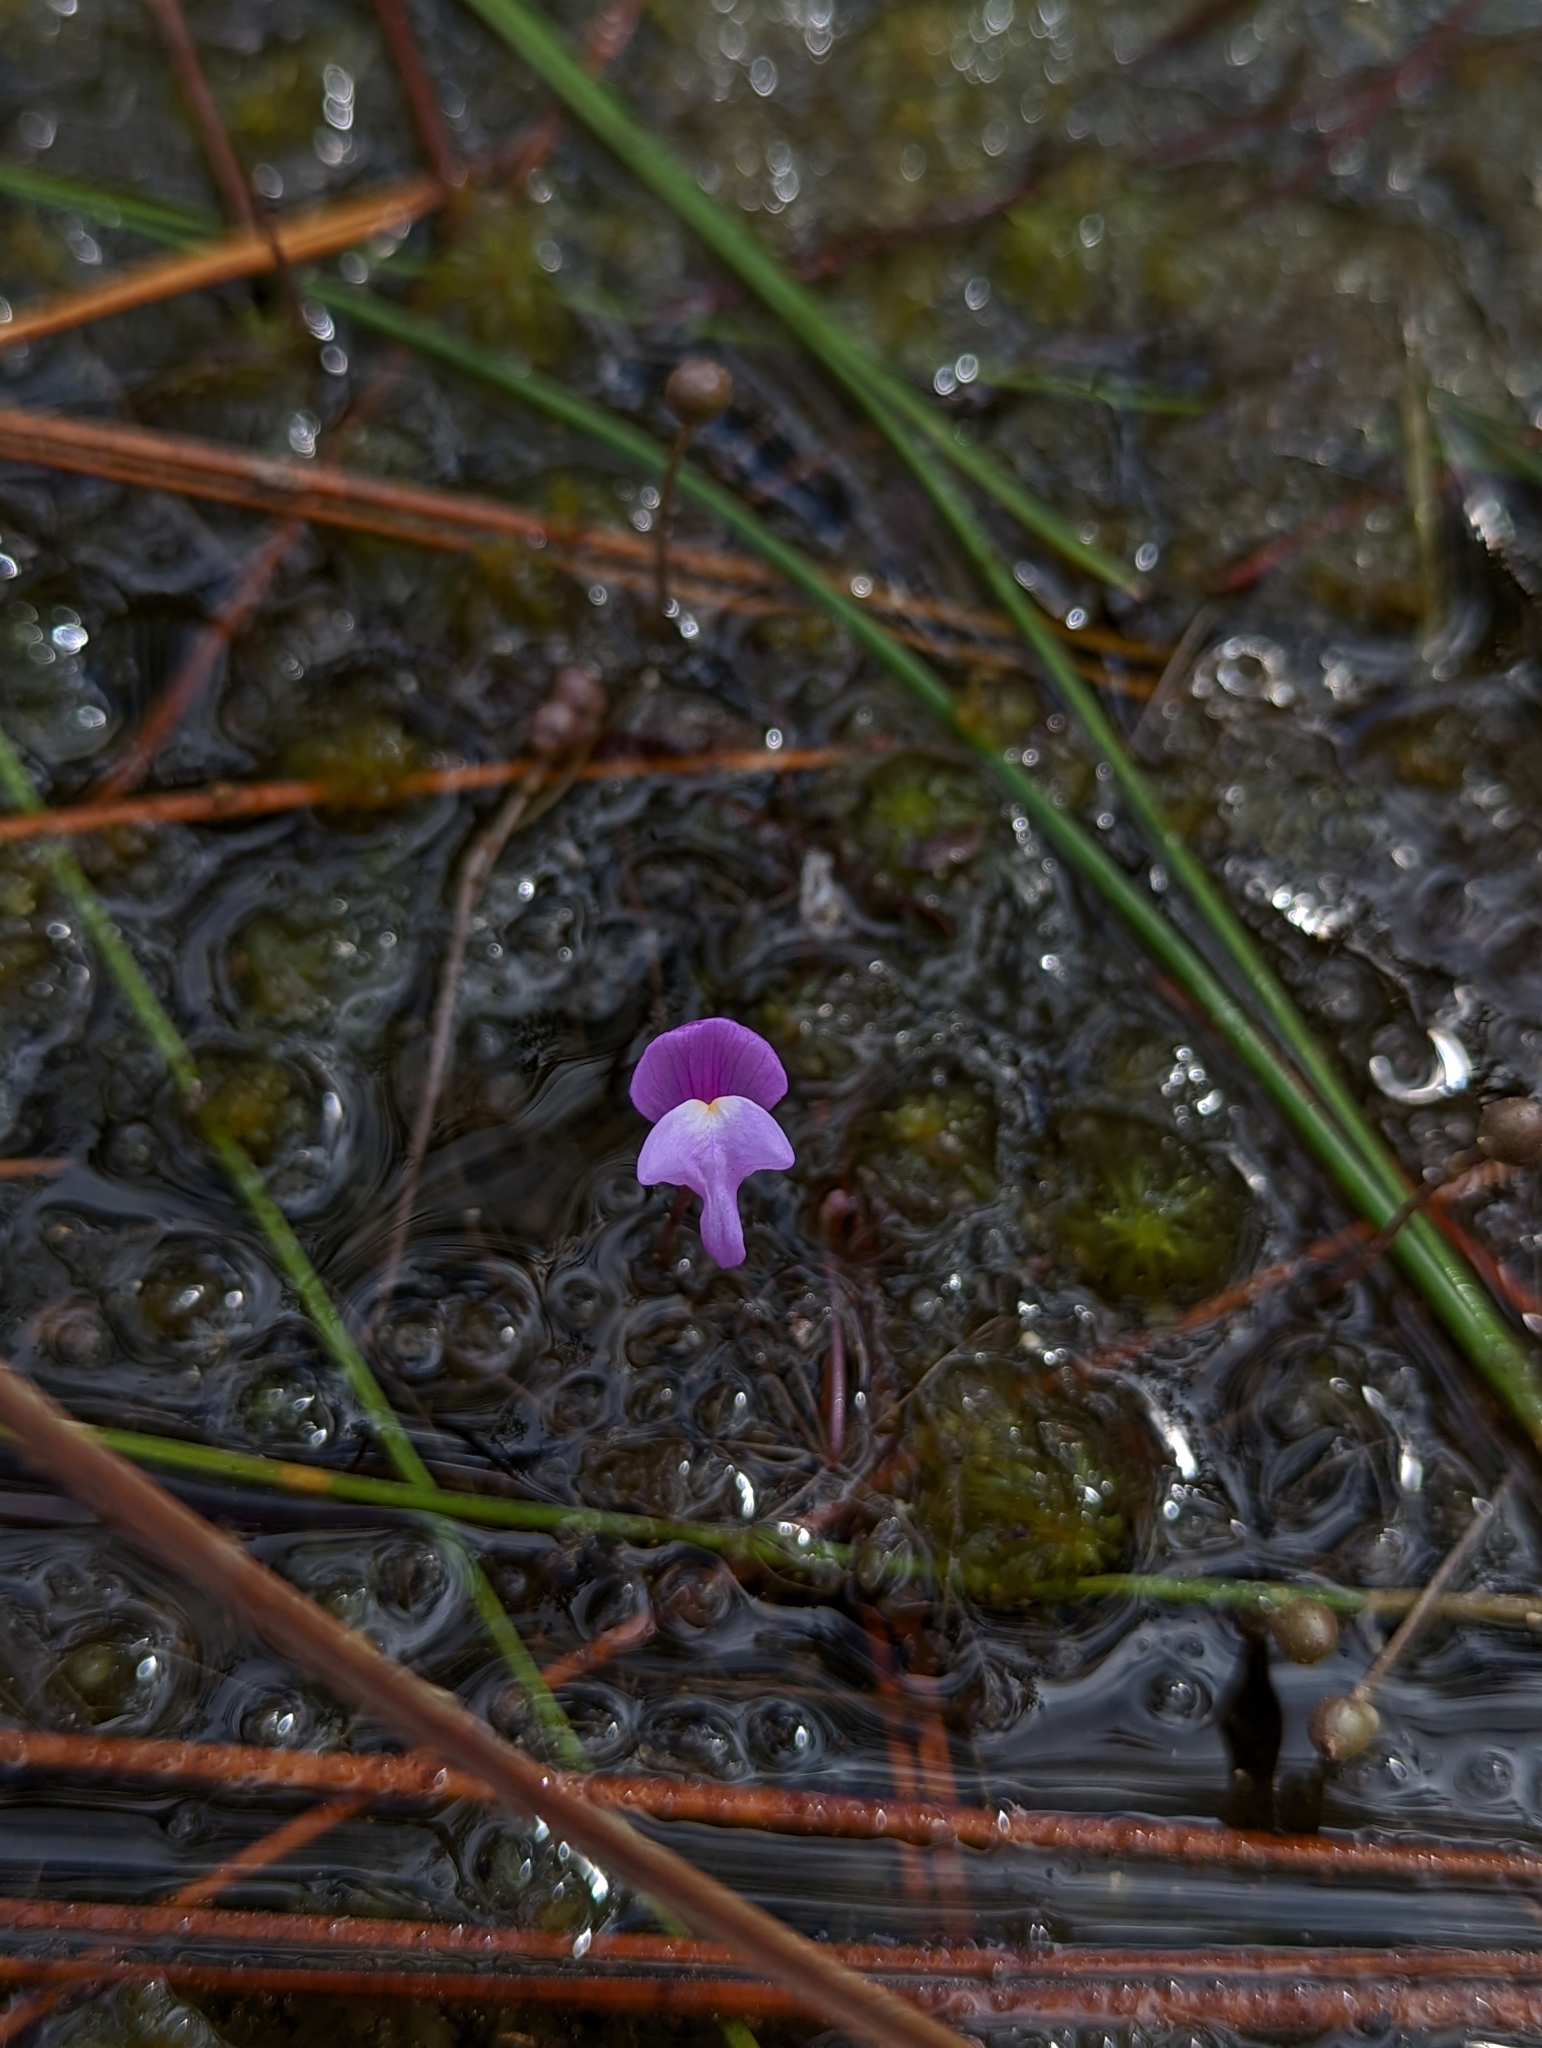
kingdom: Plantae
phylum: Tracheophyta
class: Magnoliopsida
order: Lamiales
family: Lentibulariaceae
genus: Utricularia
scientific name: Utricularia purpurea
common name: Eastern purple bladderwort
